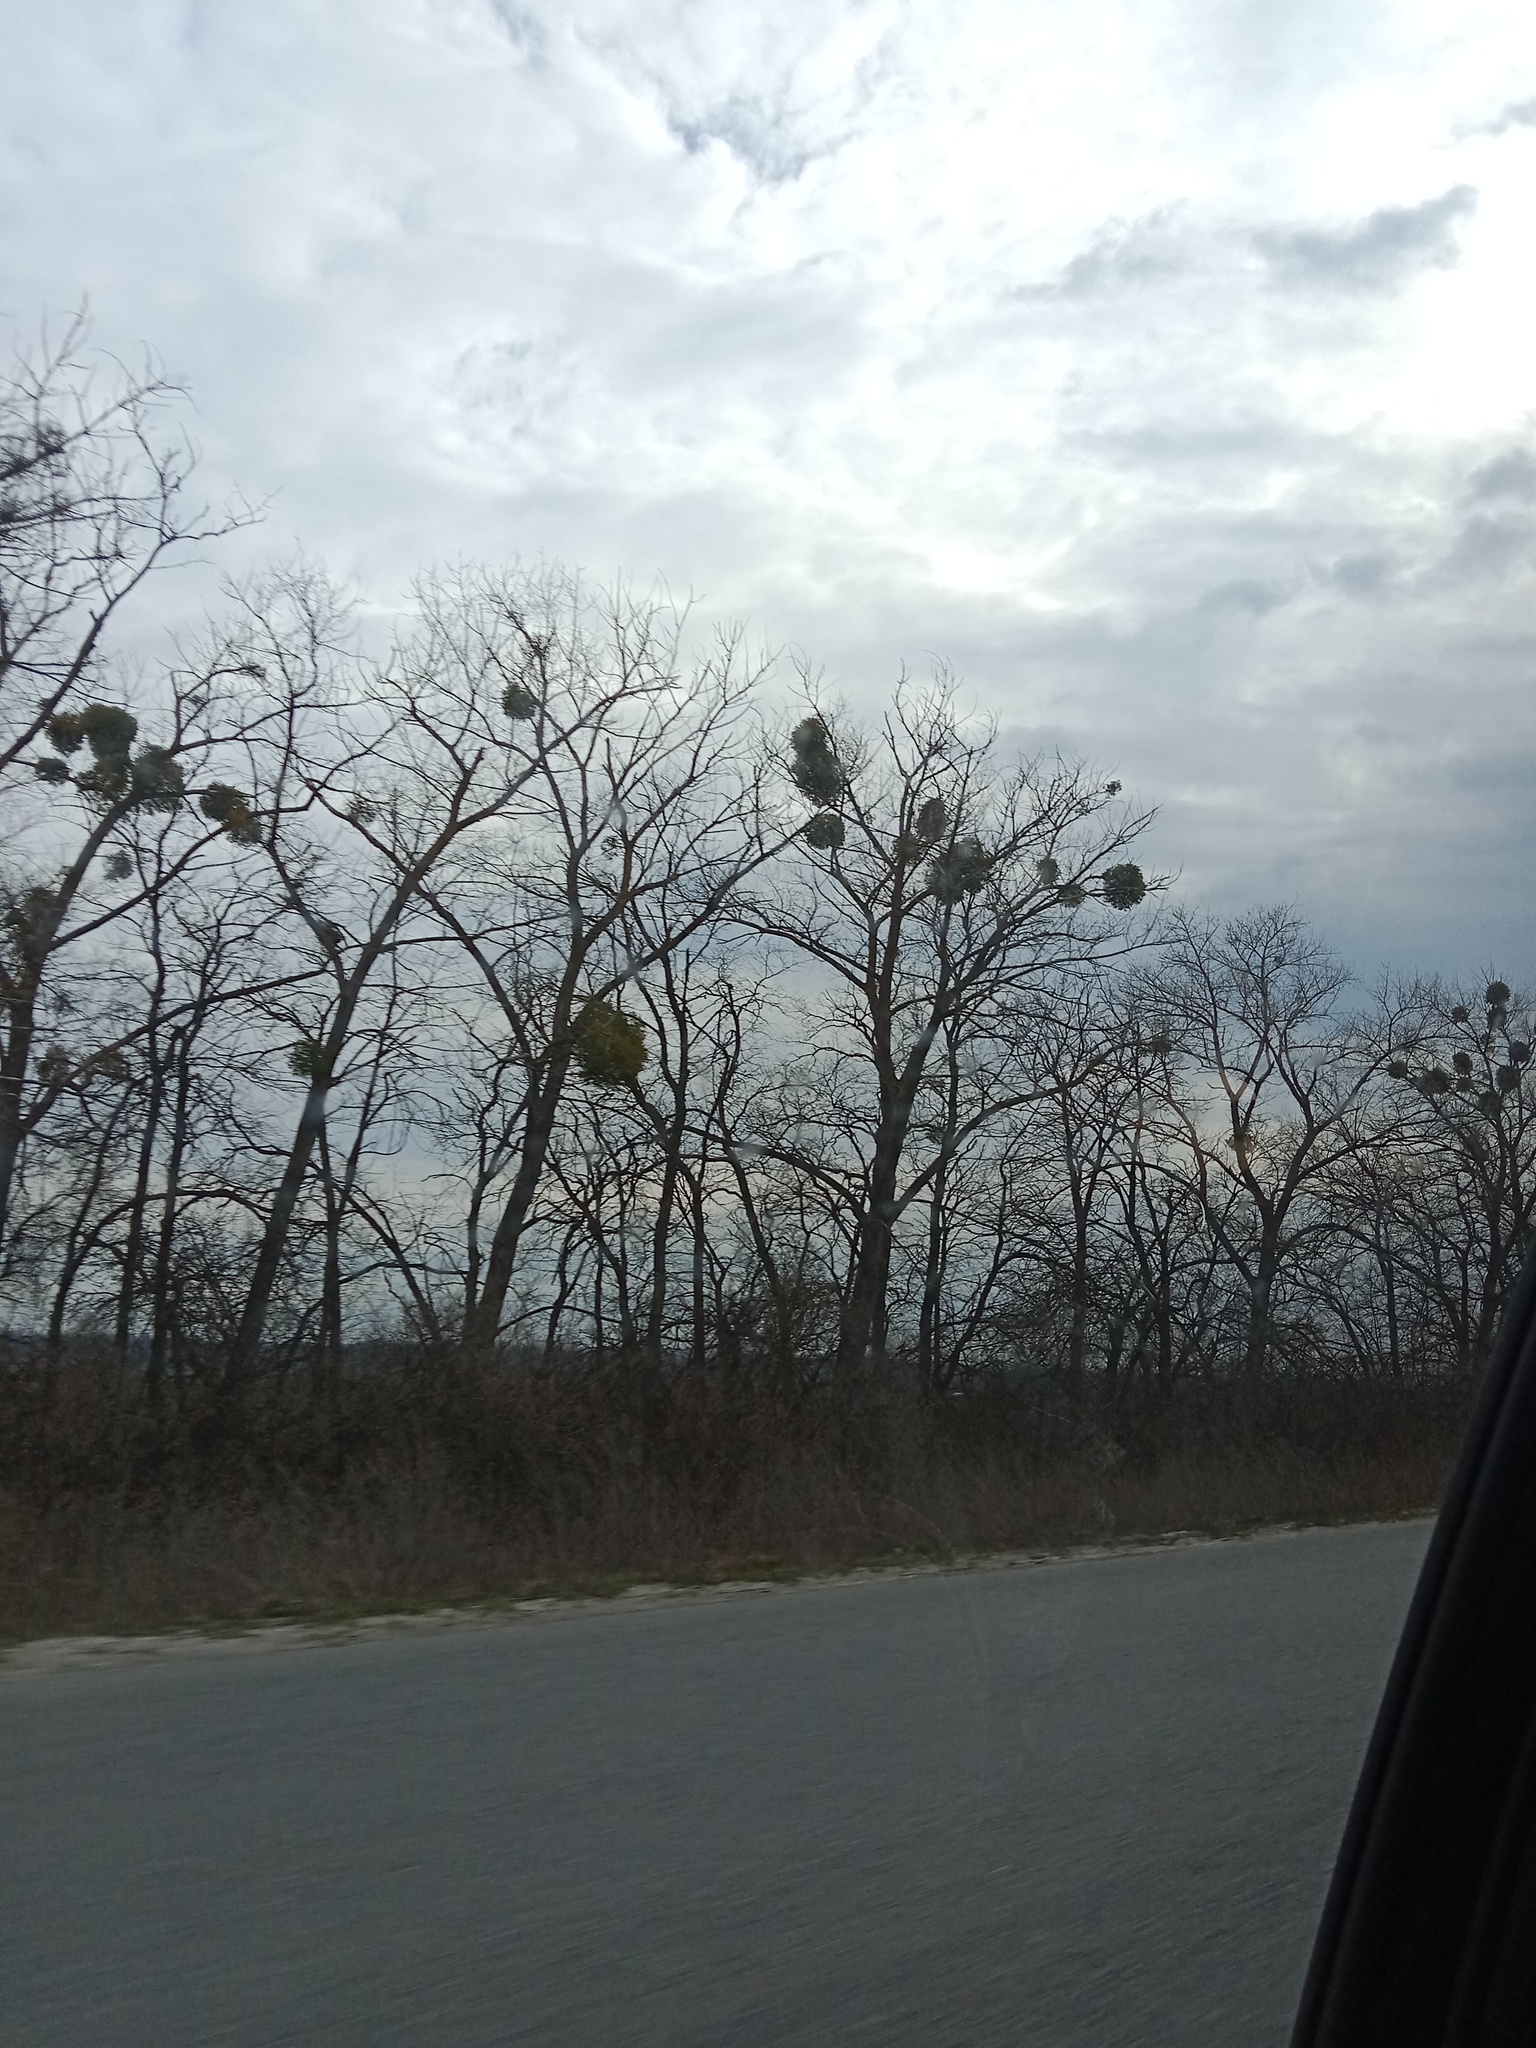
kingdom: Plantae
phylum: Tracheophyta
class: Magnoliopsida
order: Santalales
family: Viscaceae
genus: Viscum
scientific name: Viscum album
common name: Mistletoe
